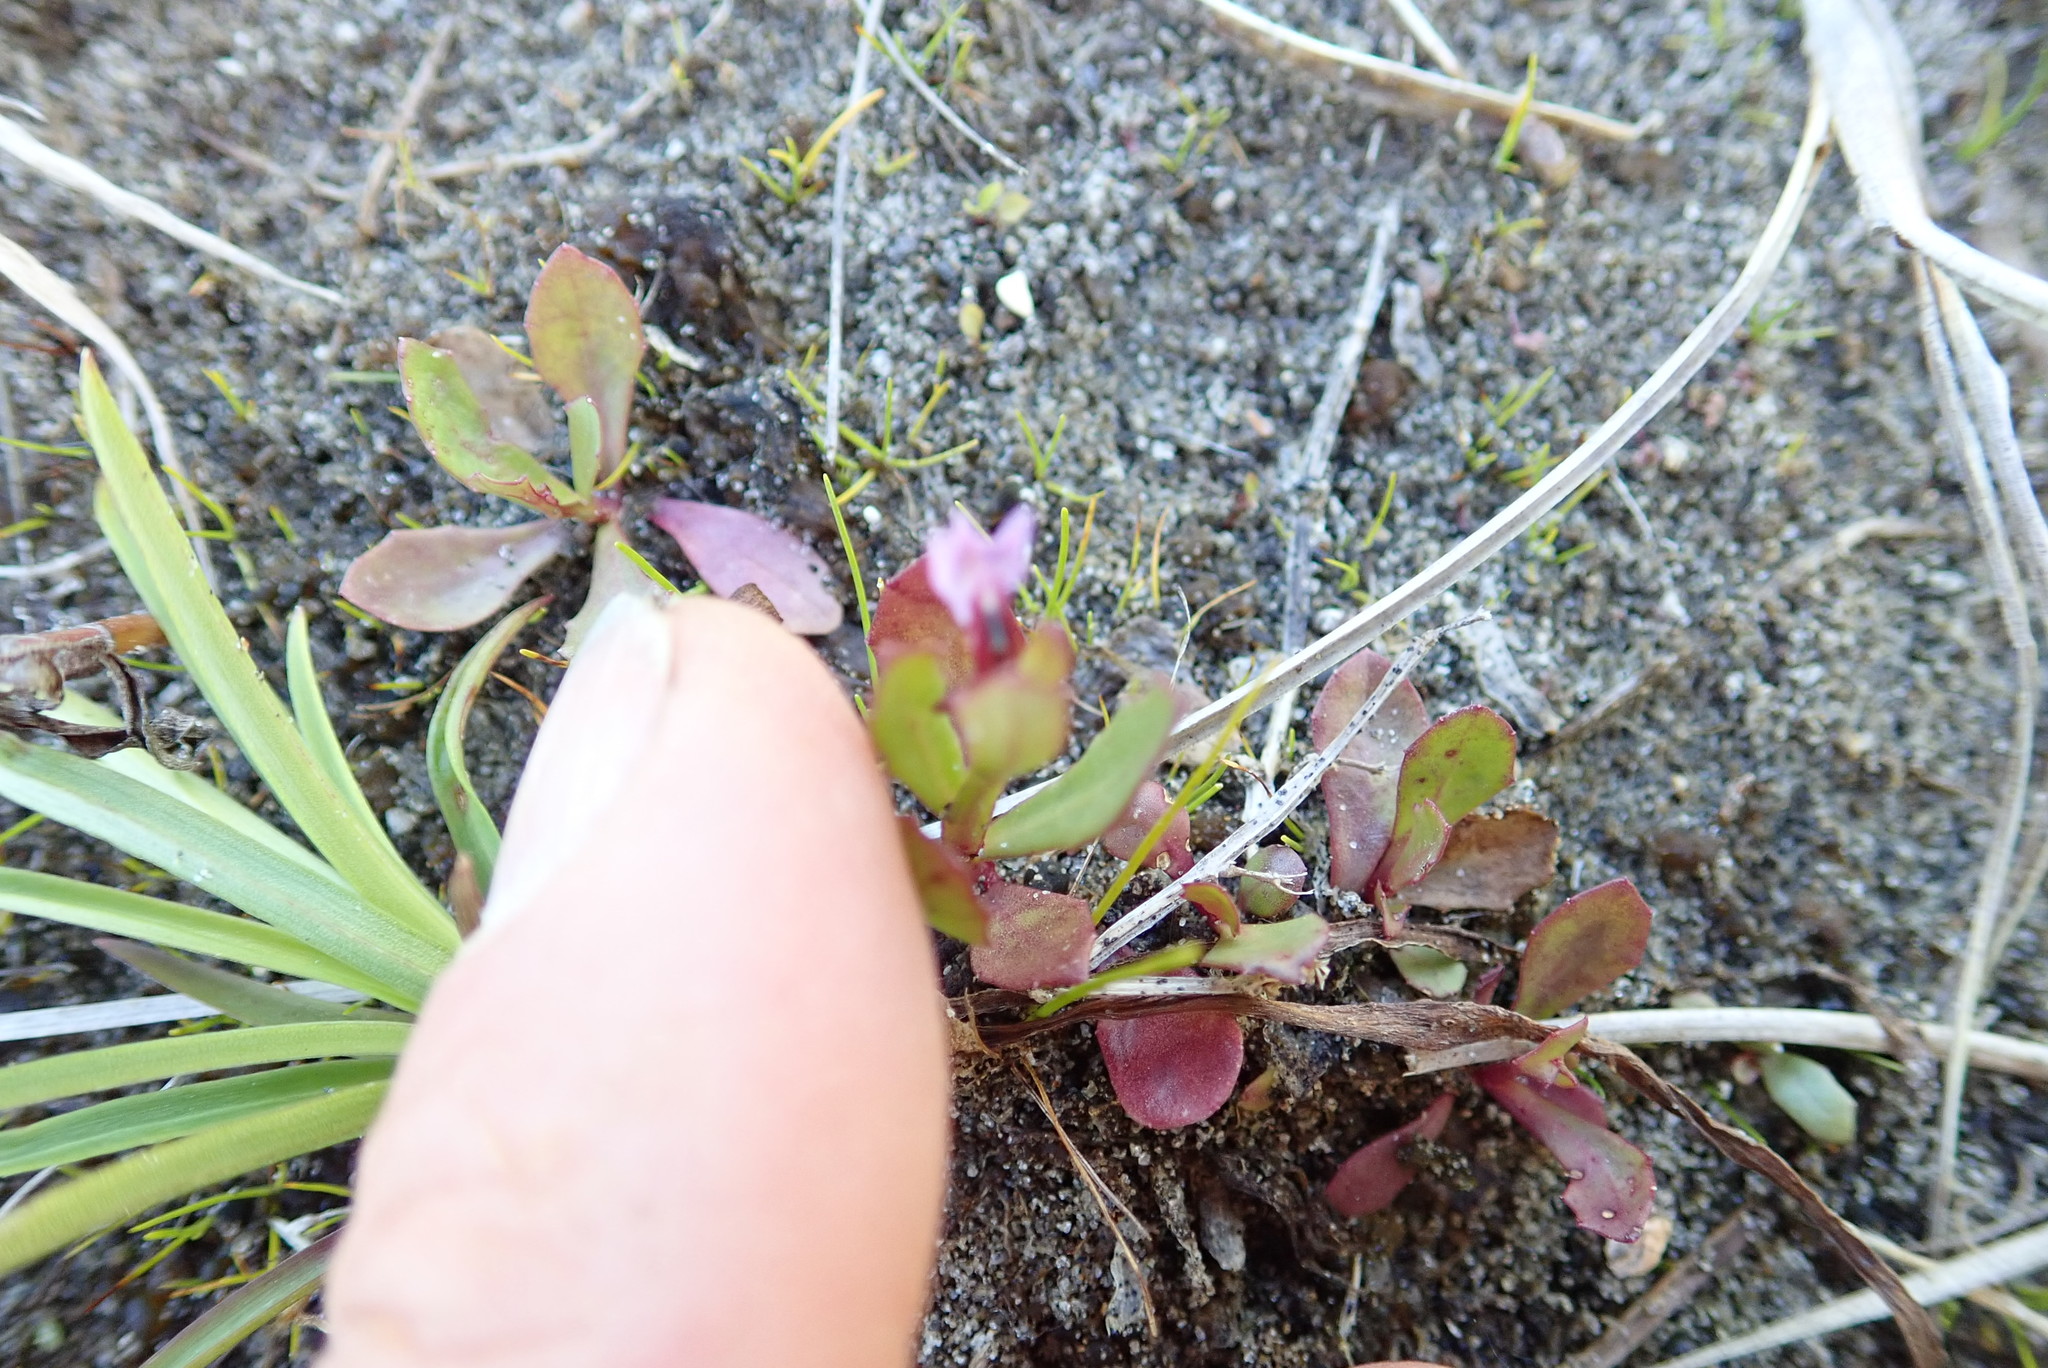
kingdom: Plantae
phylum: Tracheophyta
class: Magnoliopsida
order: Asterales
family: Campanulaceae
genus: Lobelia
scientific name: Lobelia anceps
